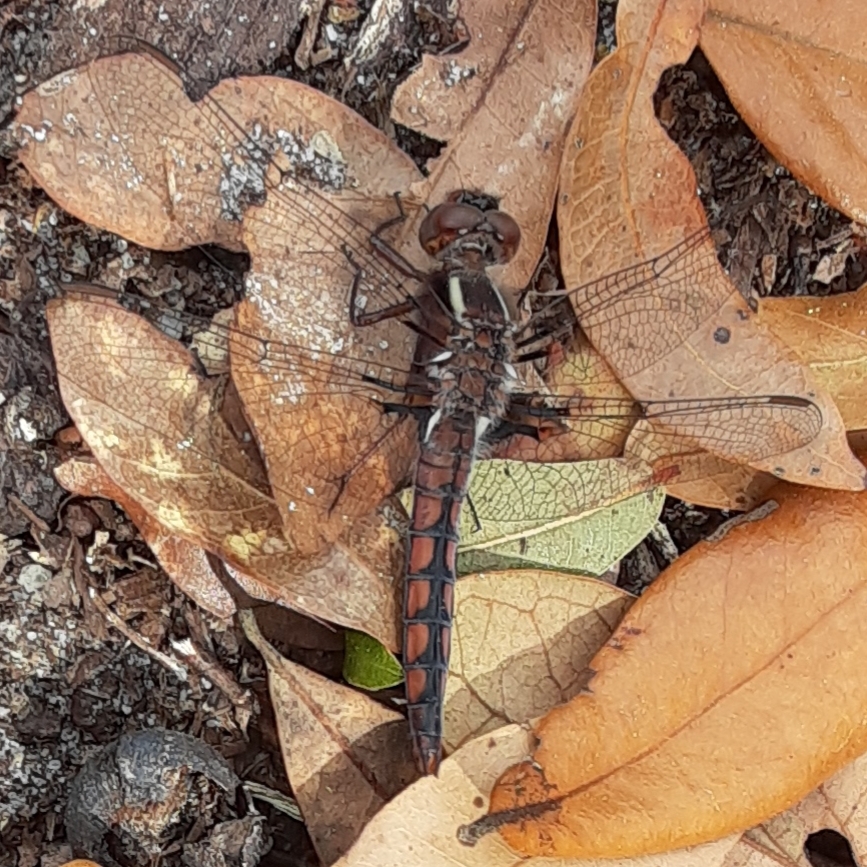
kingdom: Animalia
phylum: Arthropoda
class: Insecta
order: Odonata
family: Libellulidae
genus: Ladona
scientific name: Ladona deplanata
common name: Blue corporal
